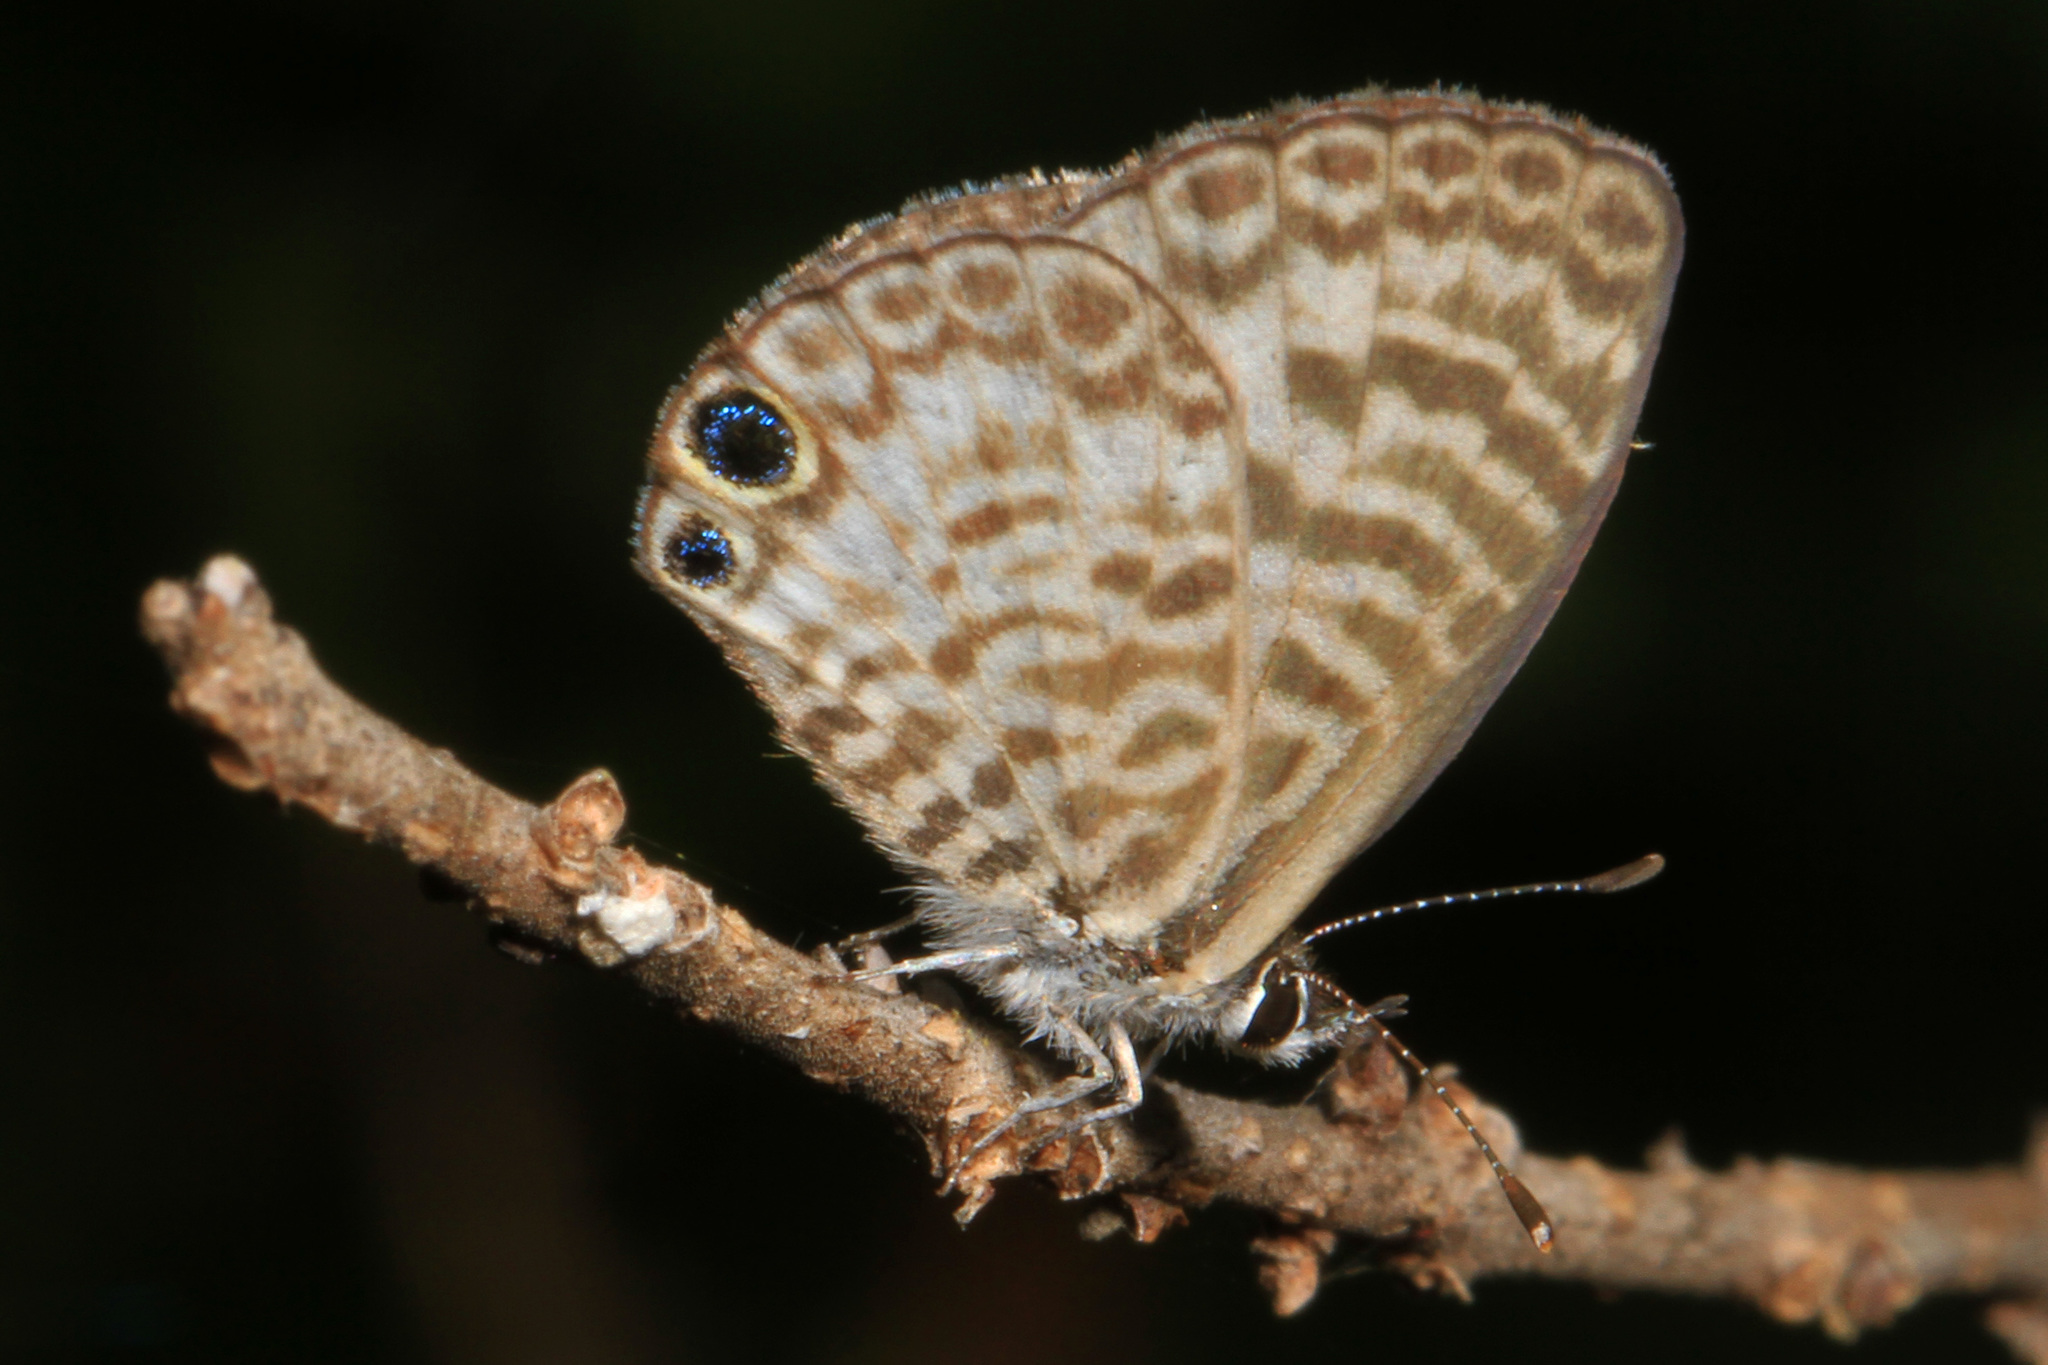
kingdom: Animalia
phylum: Arthropoda
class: Insecta
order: Lepidoptera
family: Lycaenidae
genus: Leptotes
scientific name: Leptotes cassius
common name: Cassius blue
